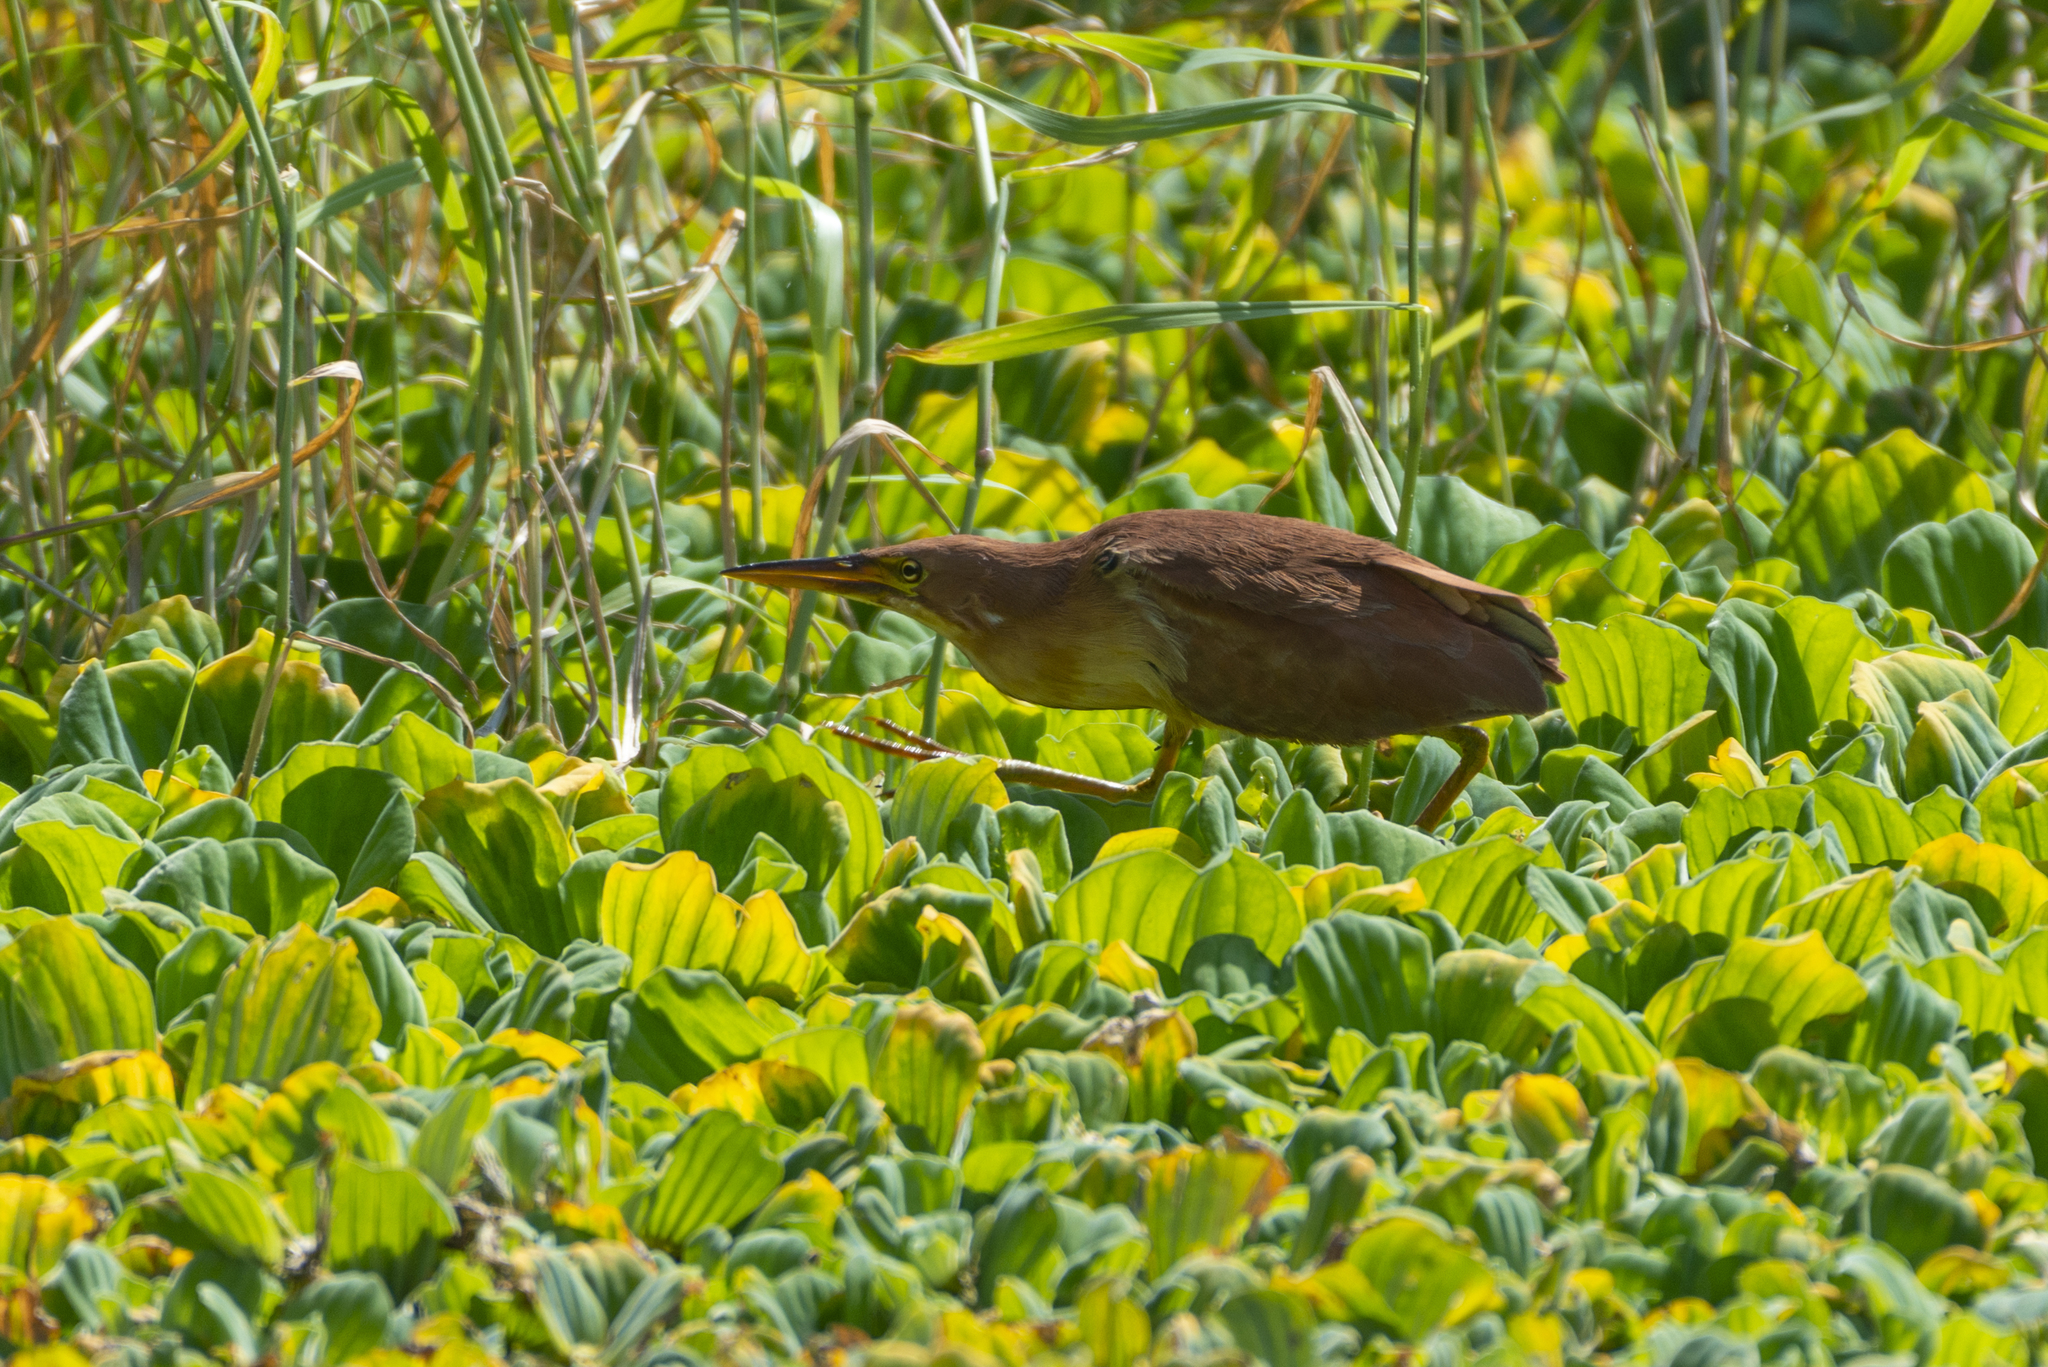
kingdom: Animalia
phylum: Chordata
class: Aves
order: Pelecaniformes
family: Ardeidae
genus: Ixobrychus
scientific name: Ixobrychus cinnamomeus
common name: Cinnamon bittern
